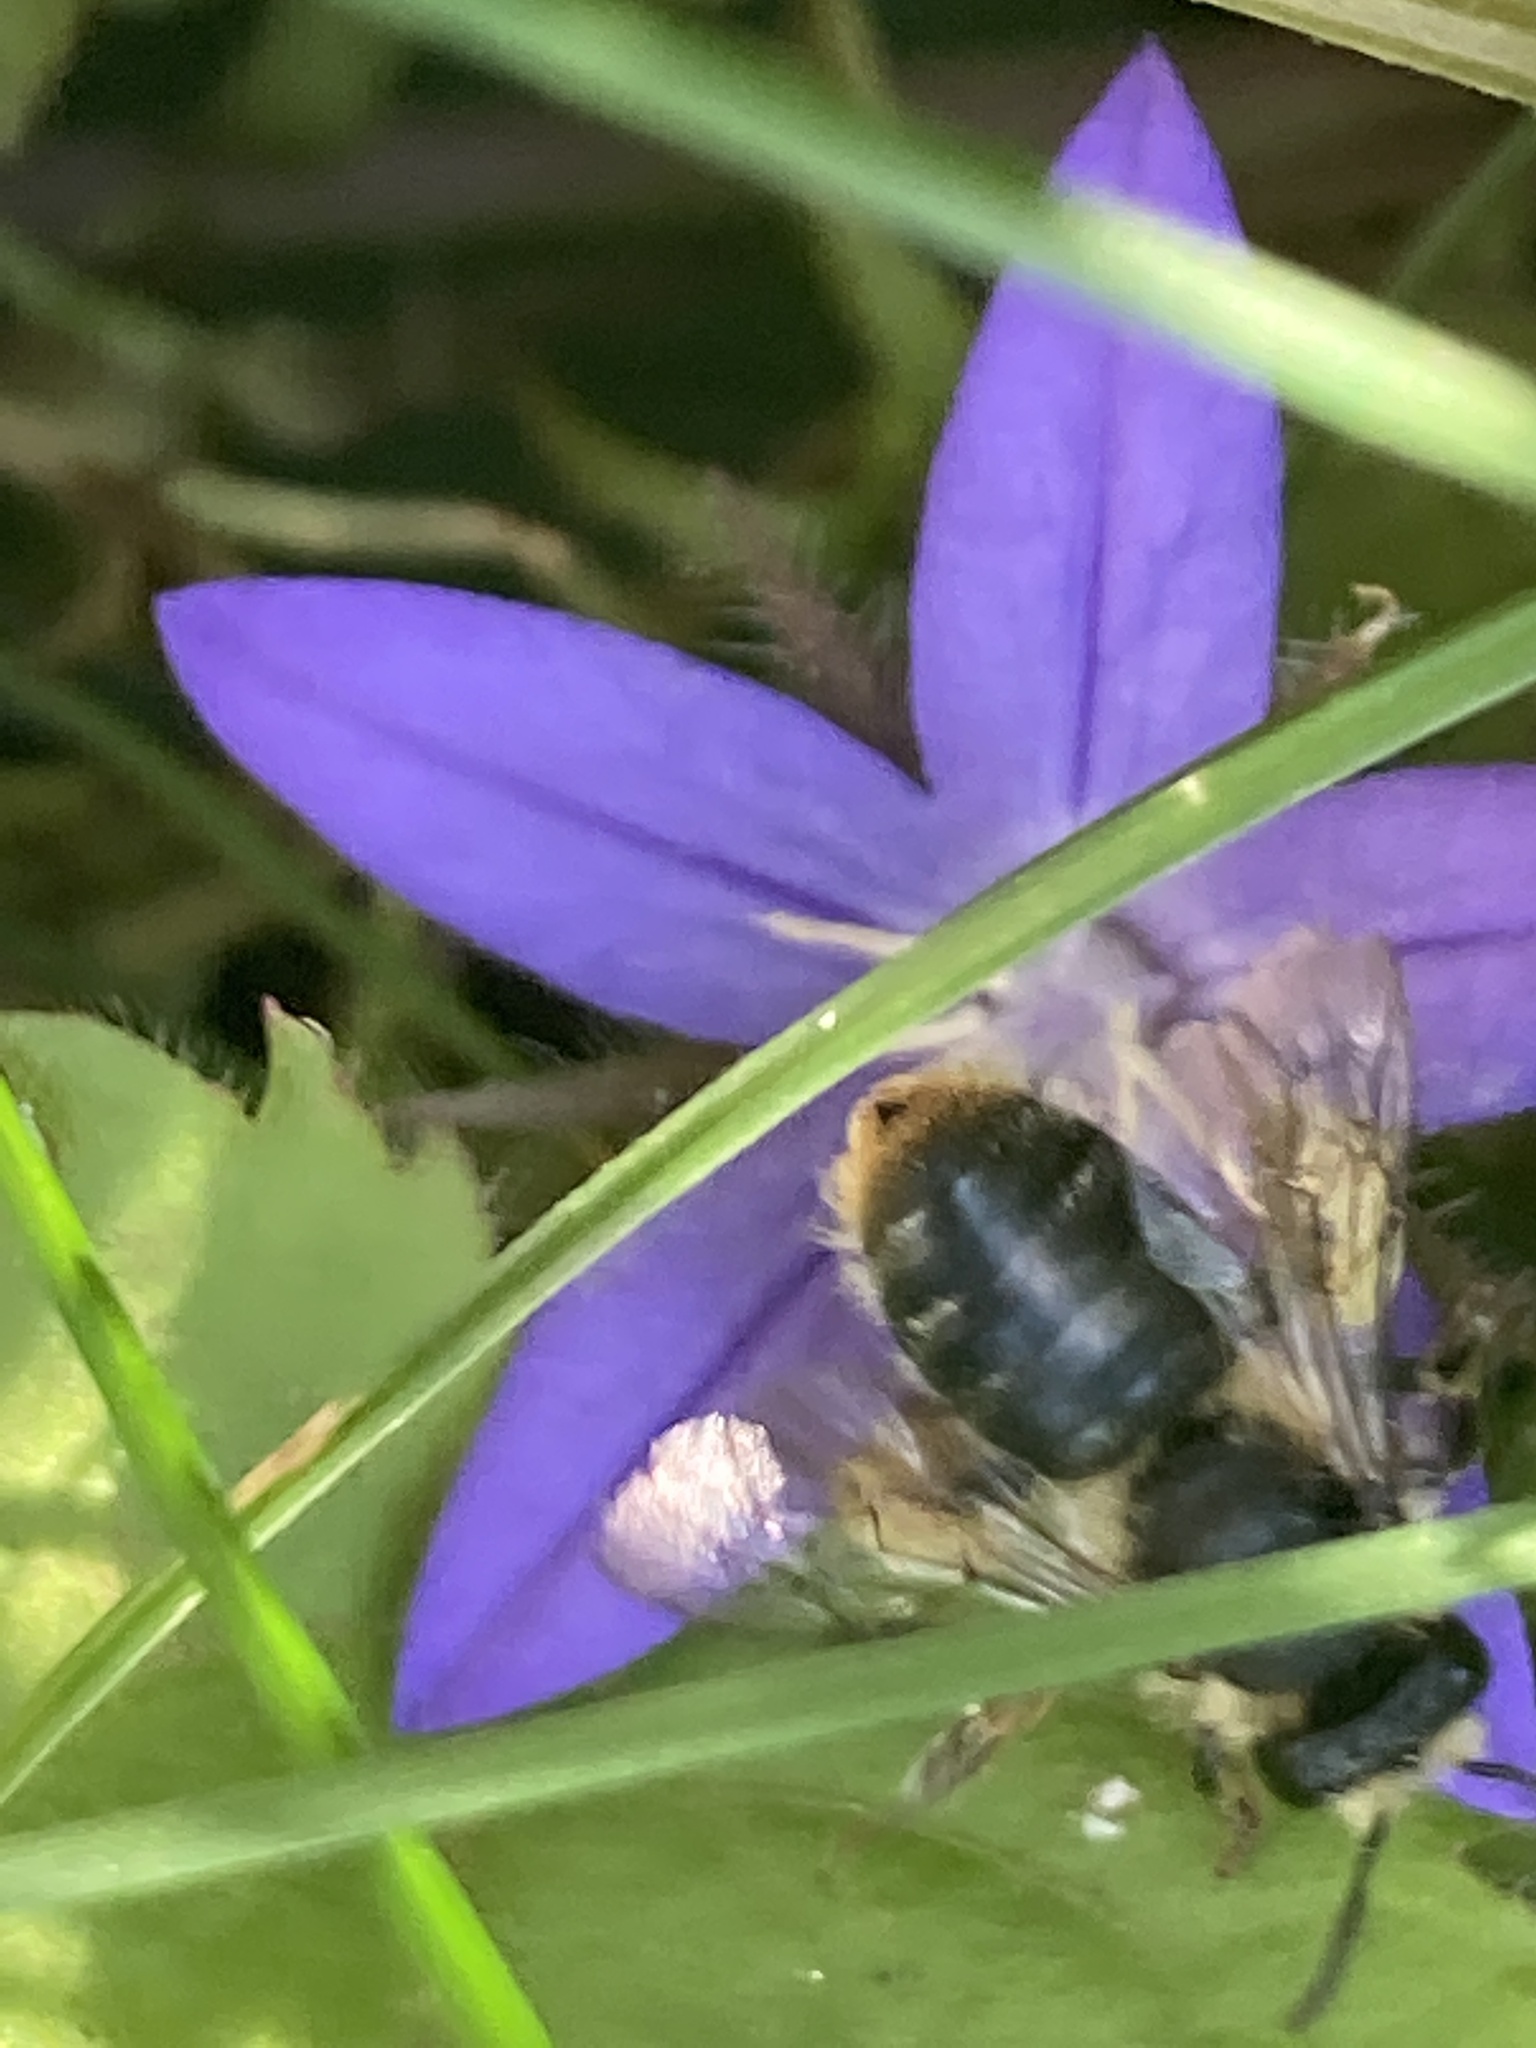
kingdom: Animalia
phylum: Arthropoda
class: Insecta
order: Hymenoptera
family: Melittidae
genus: Melitta
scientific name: Melitta haemorrhoidalis
